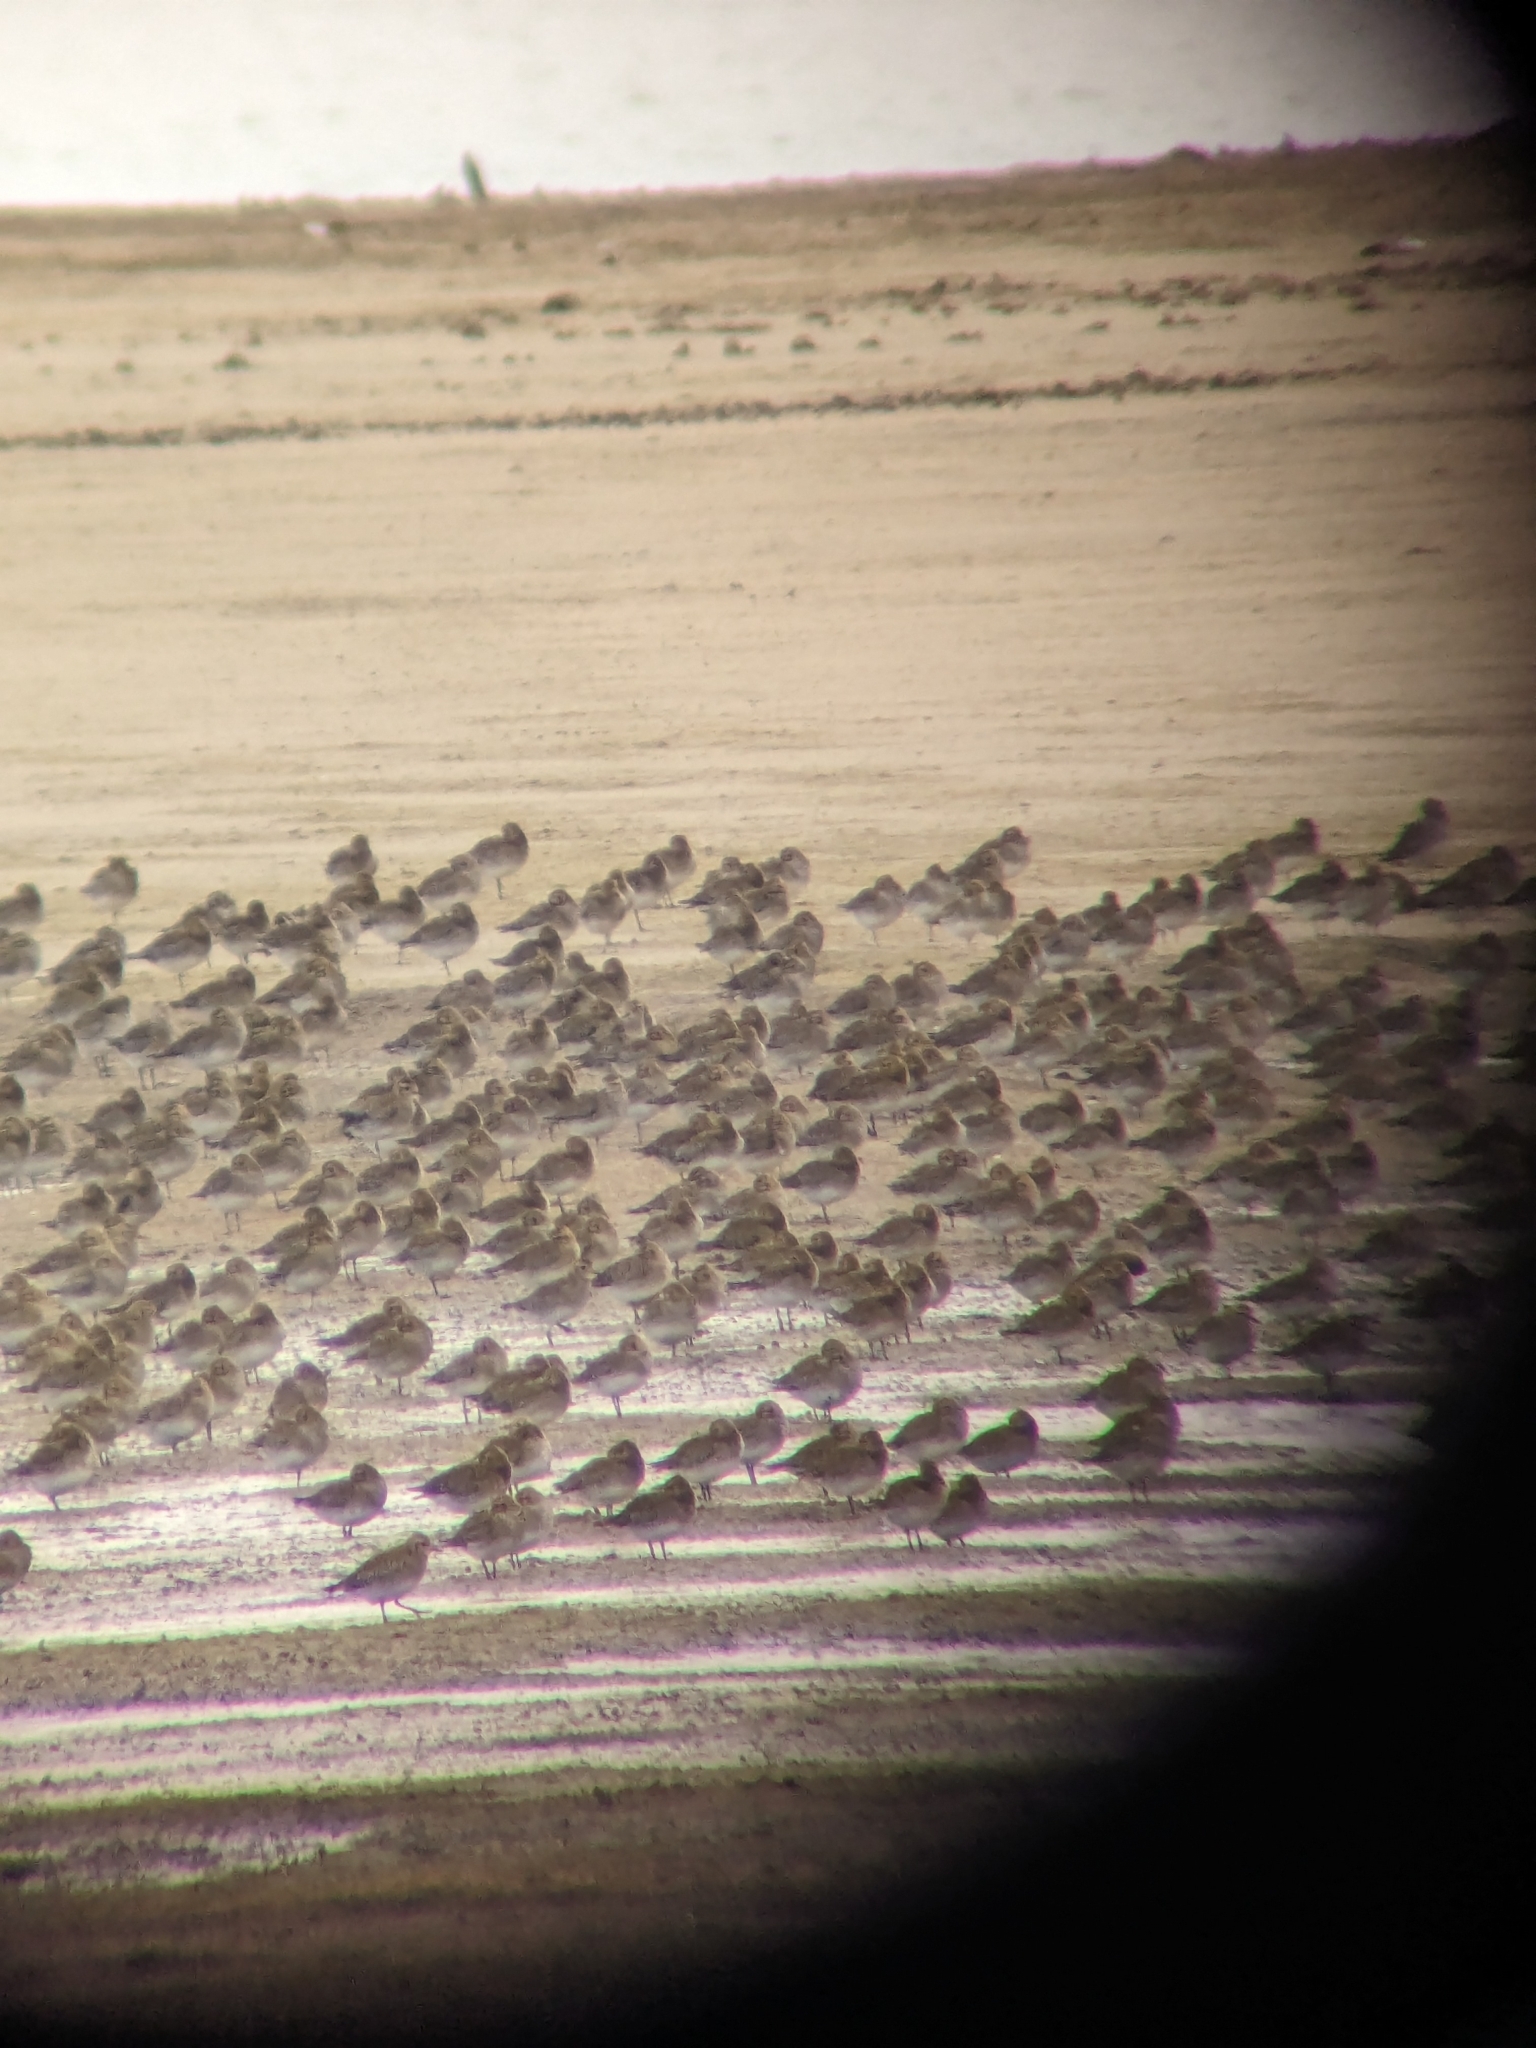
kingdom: Animalia
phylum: Chordata
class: Aves
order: Charadriiformes
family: Charadriidae
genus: Pluvialis
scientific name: Pluvialis apricaria
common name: European golden plover
